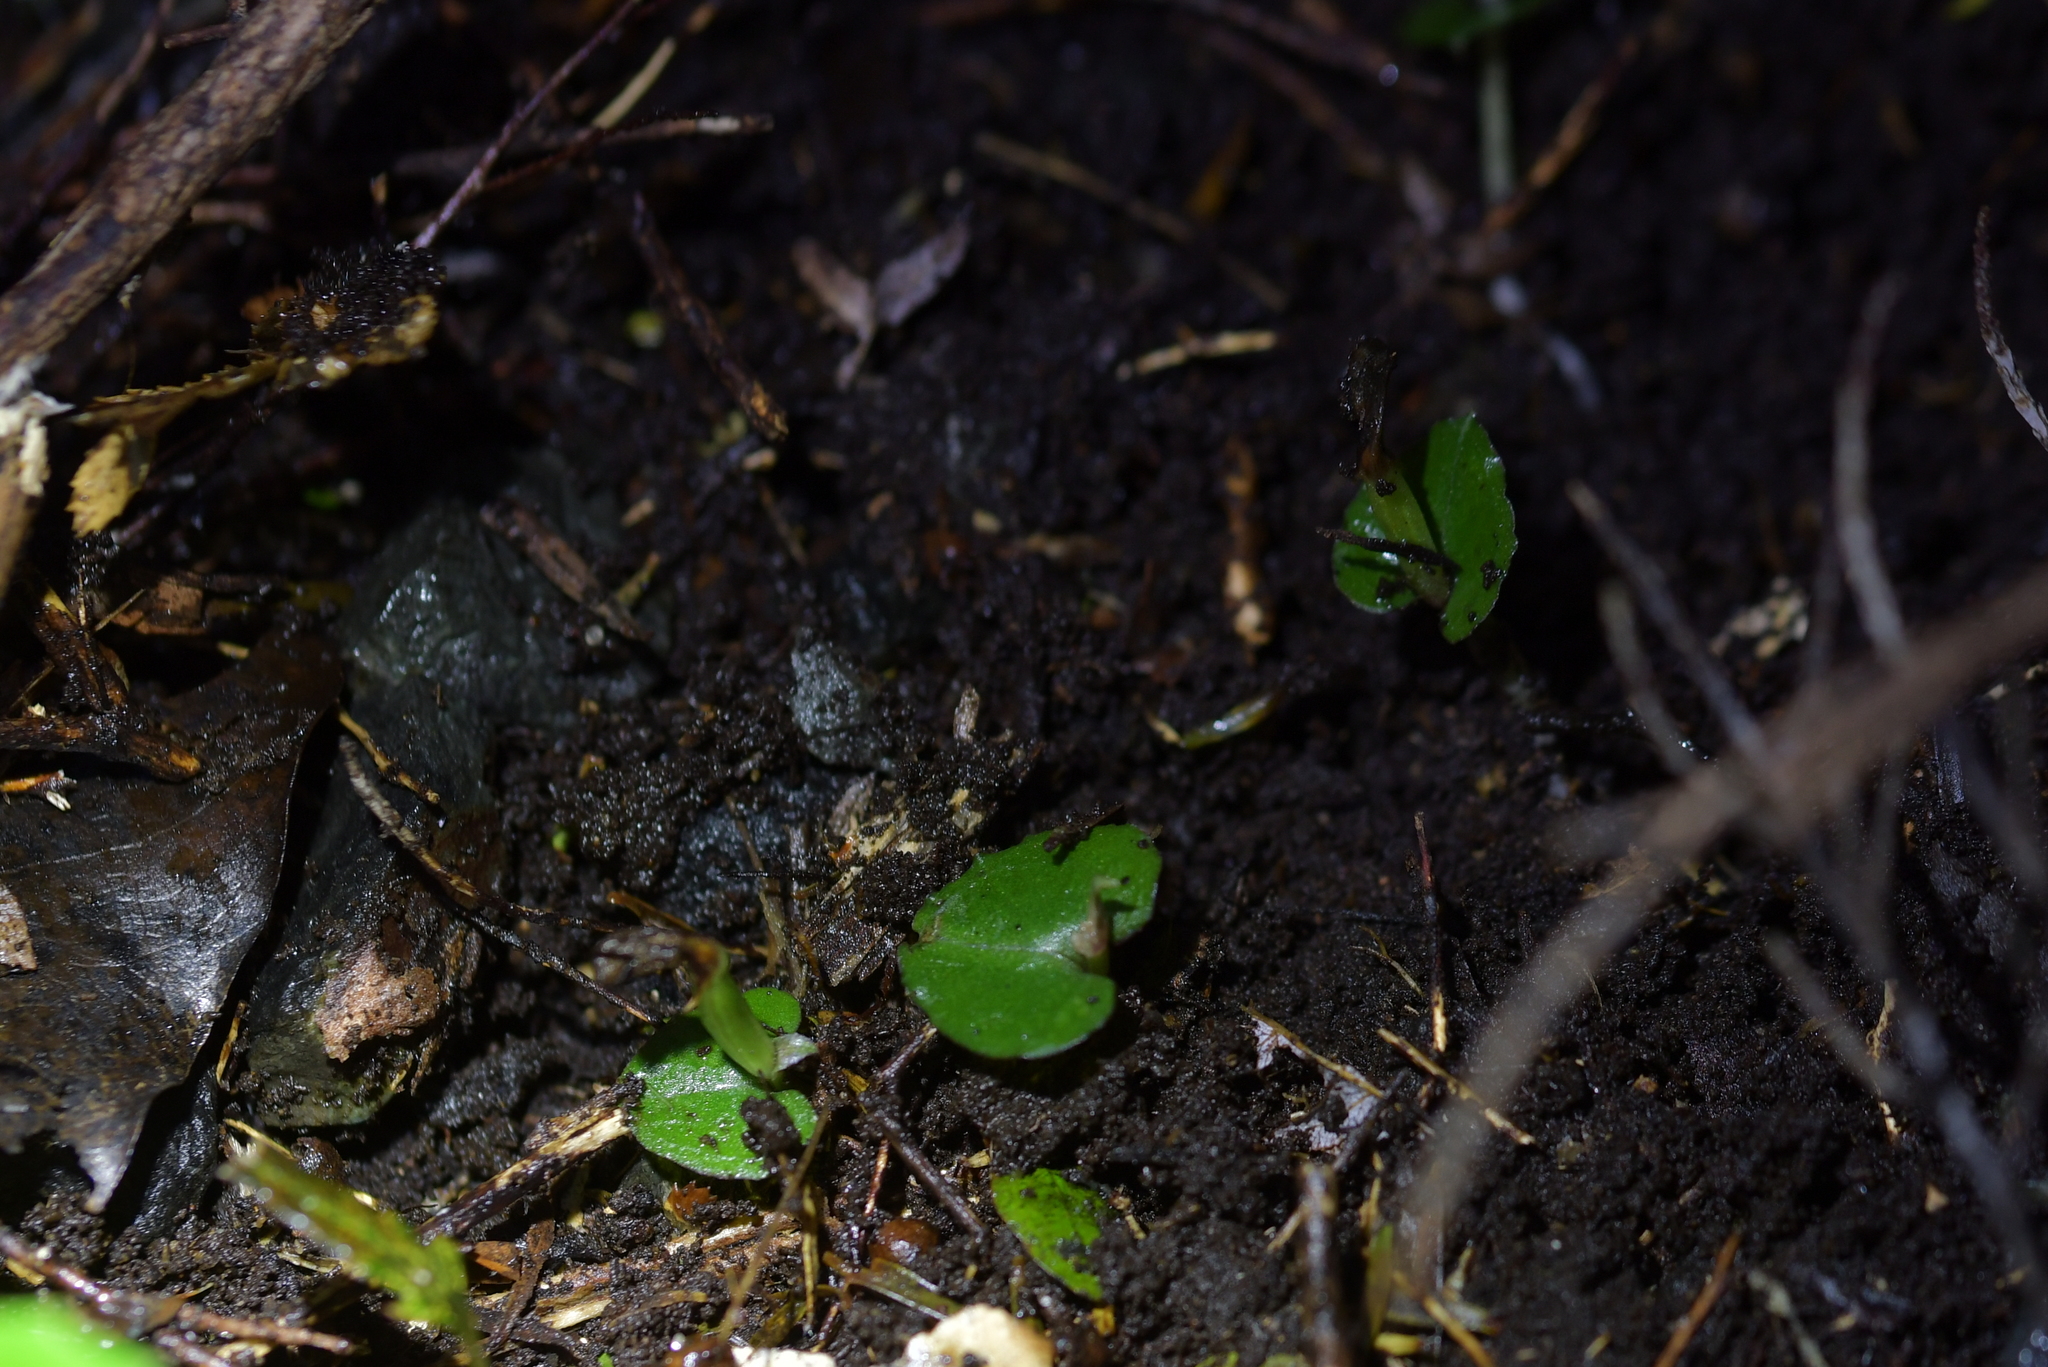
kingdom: Plantae
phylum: Tracheophyta
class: Liliopsida
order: Asparagales
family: Orchidaceae
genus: Corybas
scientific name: Corybas cheesemanii
